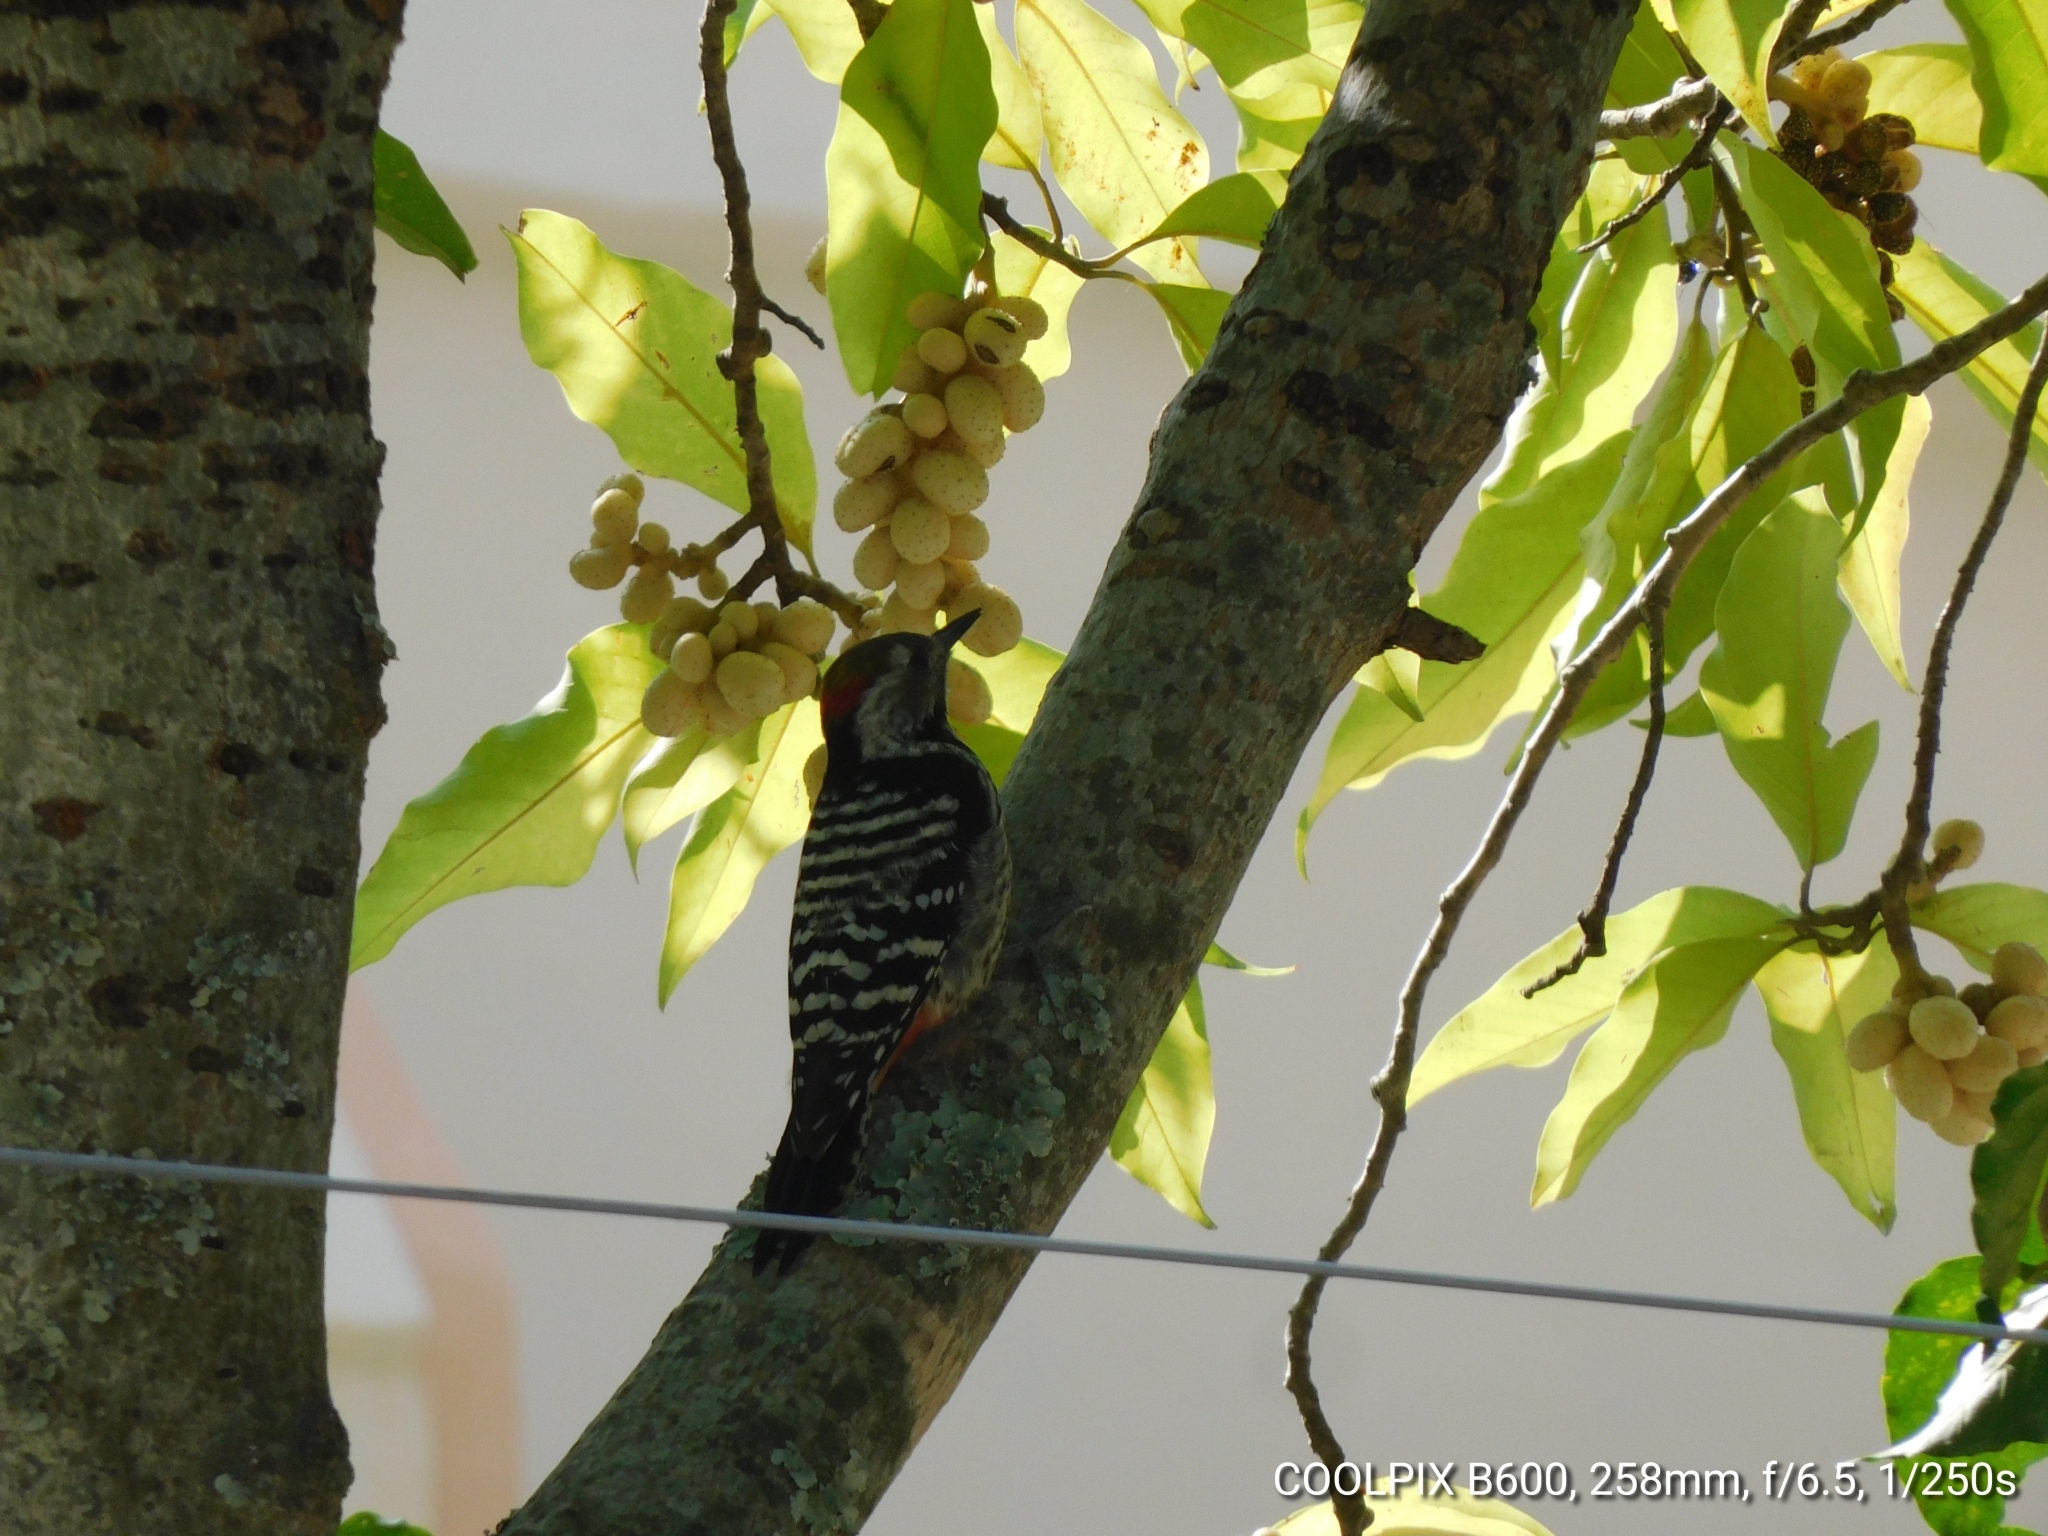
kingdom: Animalia
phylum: Chordata
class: Aves
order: Piciformes
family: Picidae
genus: Dendrocoptes
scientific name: Dendrocoptes auriceps
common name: Brown-fronted woodpecker
